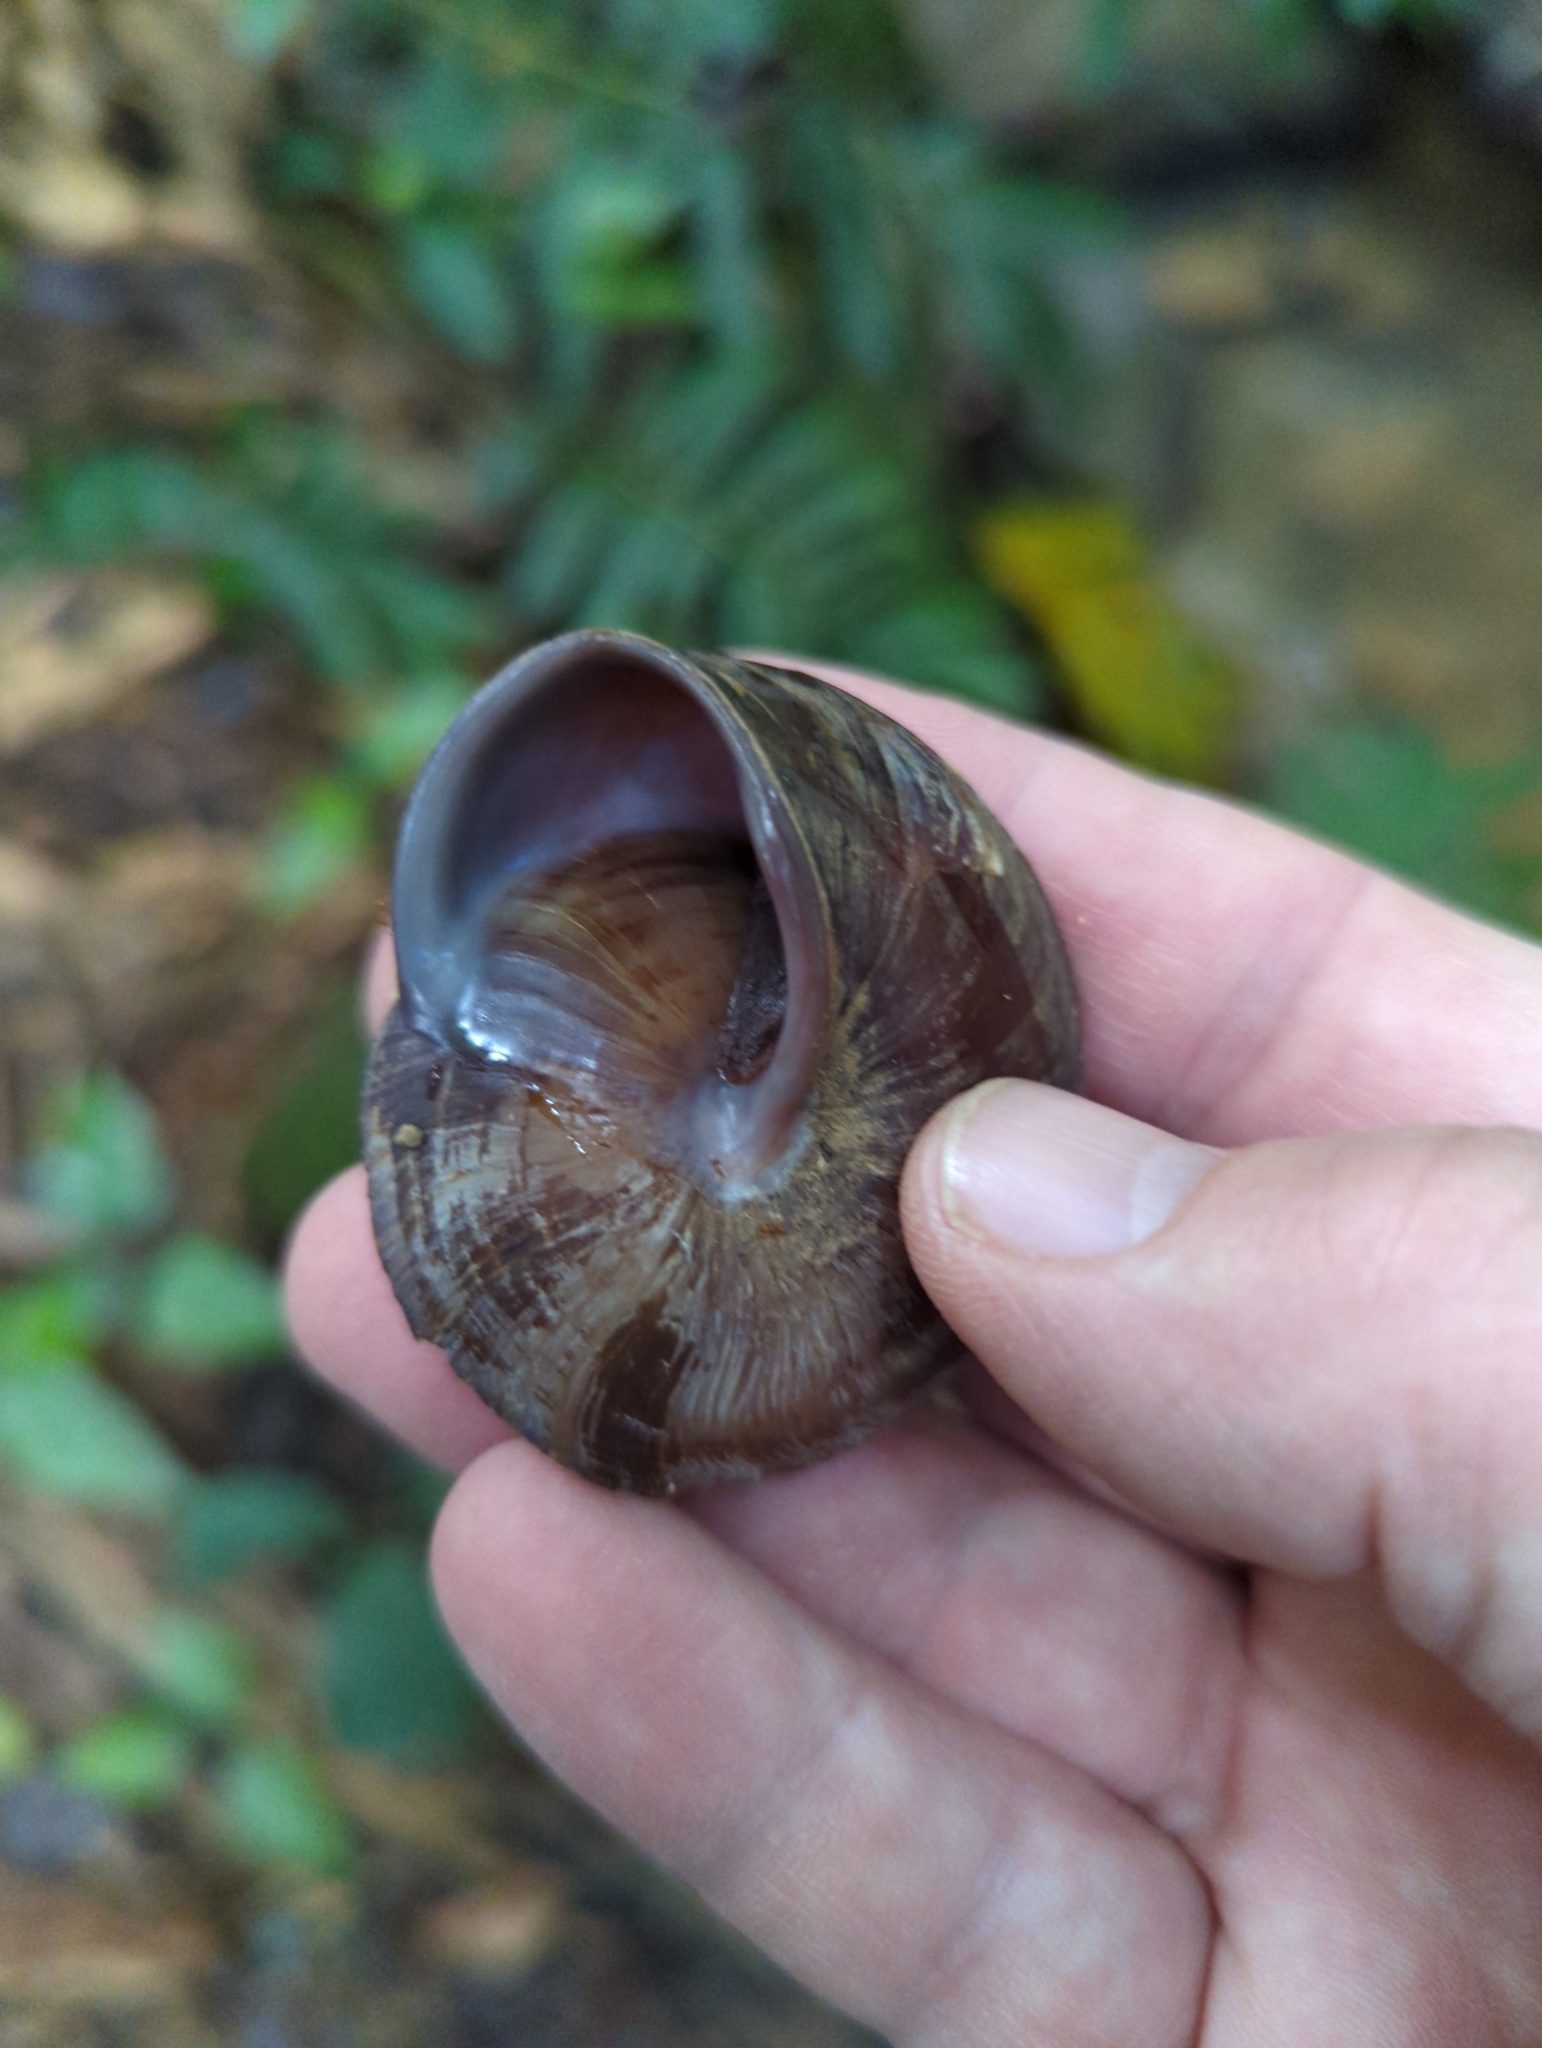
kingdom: Animalia
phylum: Mollusca
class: Gastropoda
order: Stylommatophora
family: Solaropsidae
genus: Caracolus
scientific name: Caracolus carocolla
